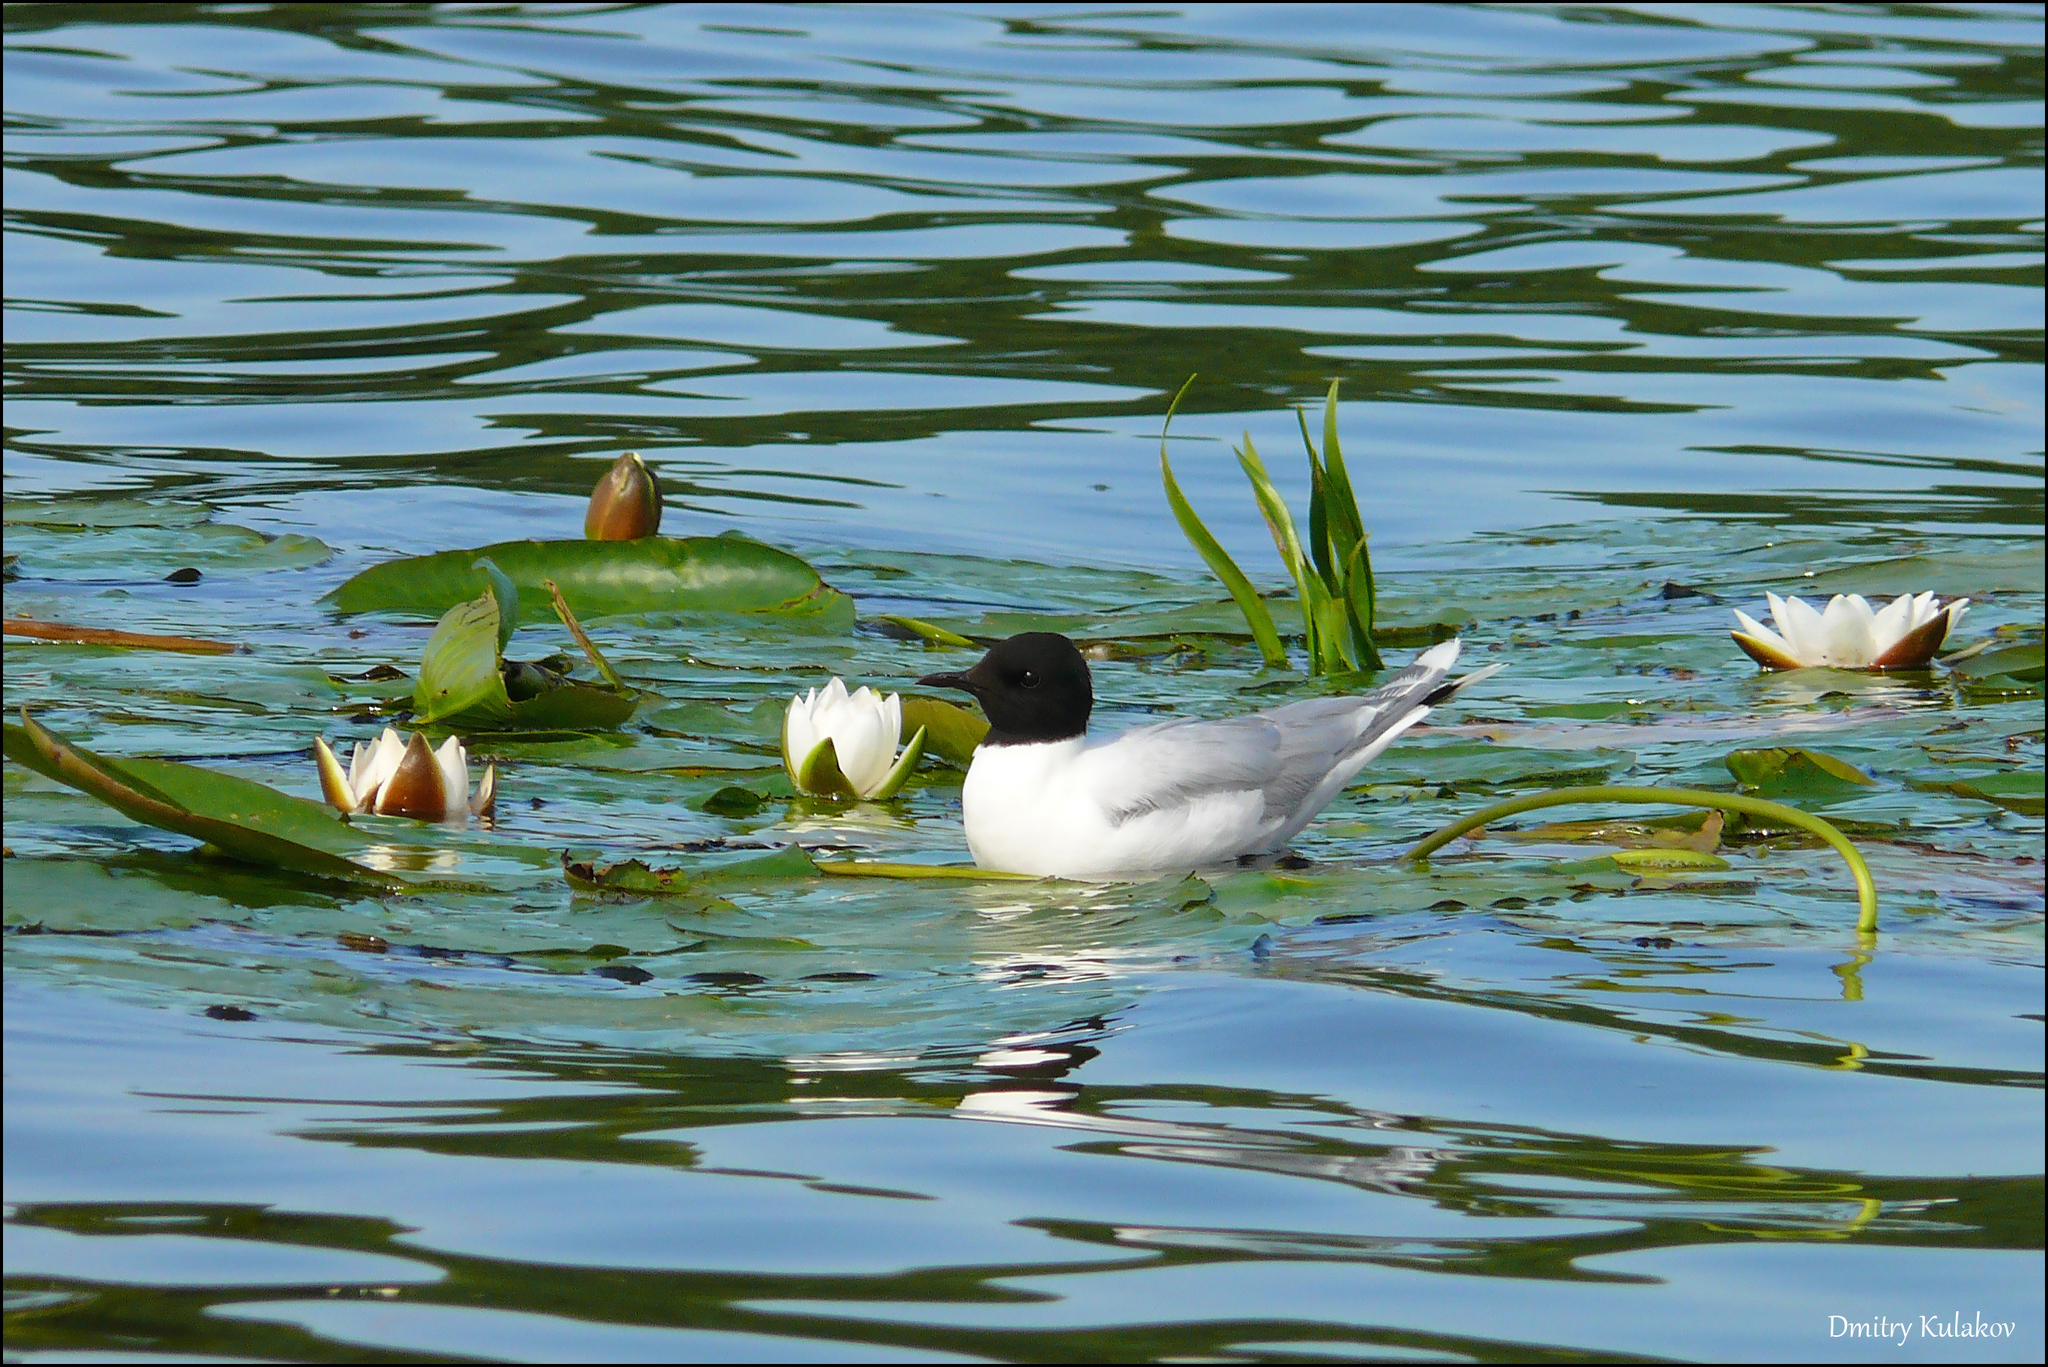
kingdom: Animalia
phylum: Chordata
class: Aves
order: Charadriiformes
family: Laridae
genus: Hydrocoloeus
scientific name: Hydrocoloeus minutus
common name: Little gull
